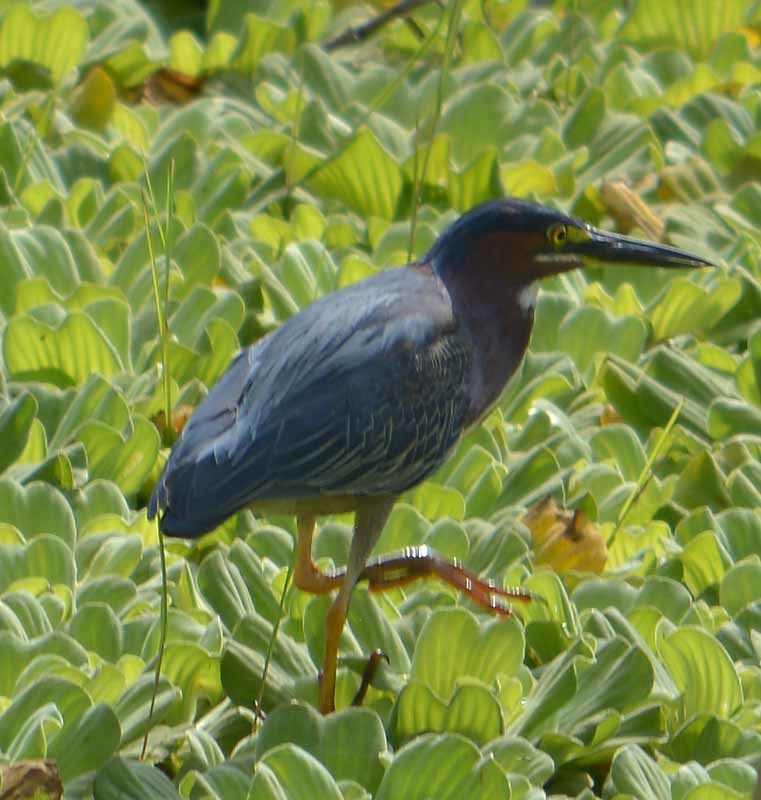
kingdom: Animalia
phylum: Chordata
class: Aves
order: Pelecaniformes
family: Ardeidae
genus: Butorides
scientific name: Butorides virescens
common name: Green heron
